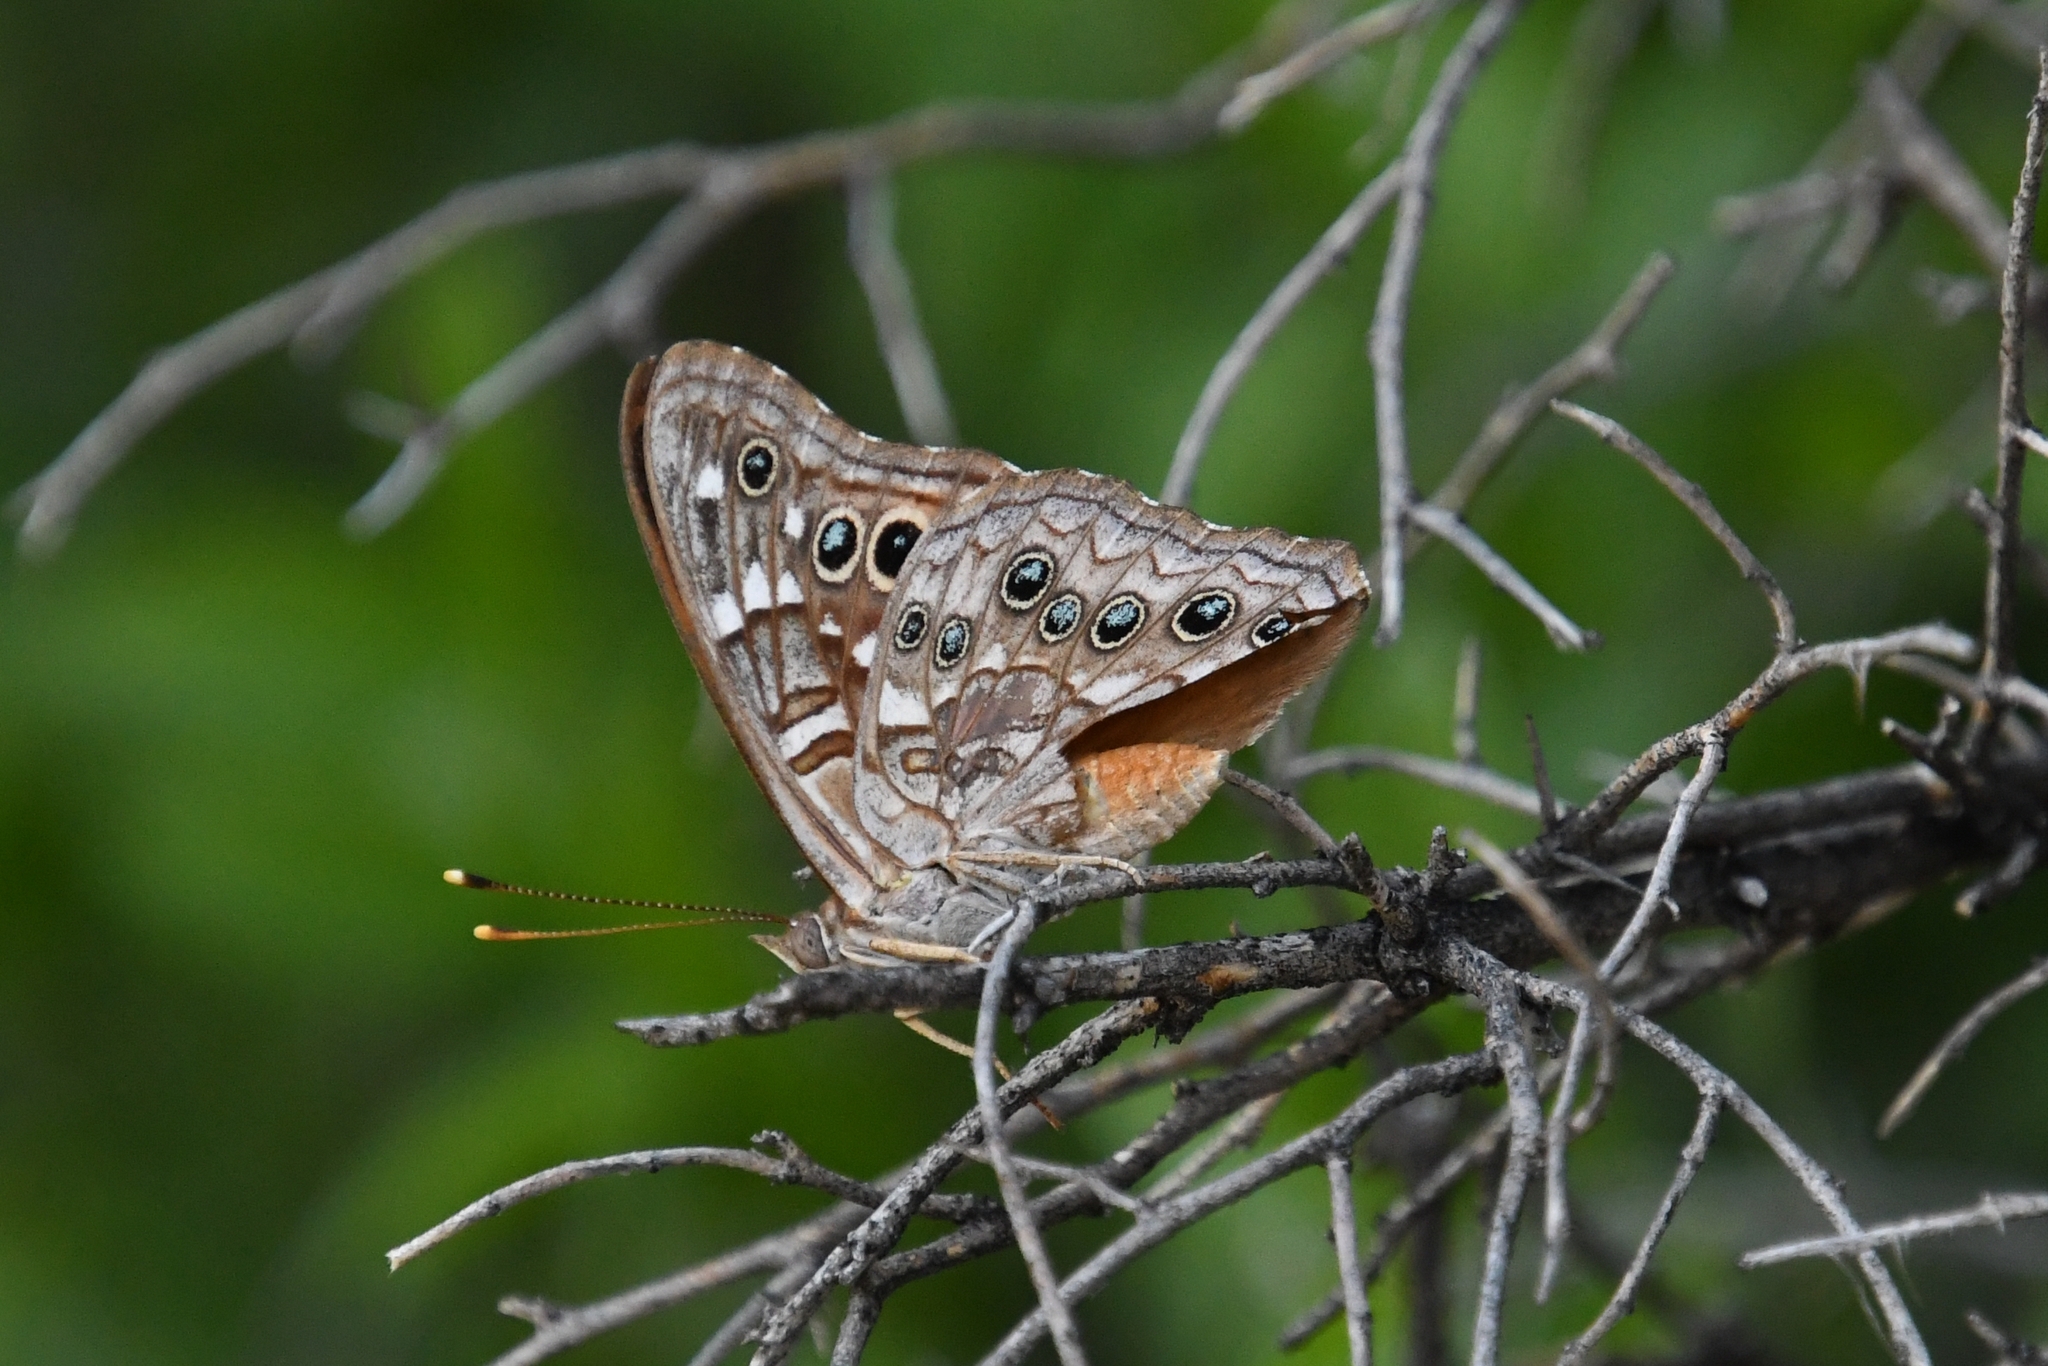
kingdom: Animalia
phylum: Arthropoda
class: Insecta
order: Lepidoptera
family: Nymphalidae
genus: Asterocampa
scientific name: Asterocampa leilia
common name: Empress leilia
